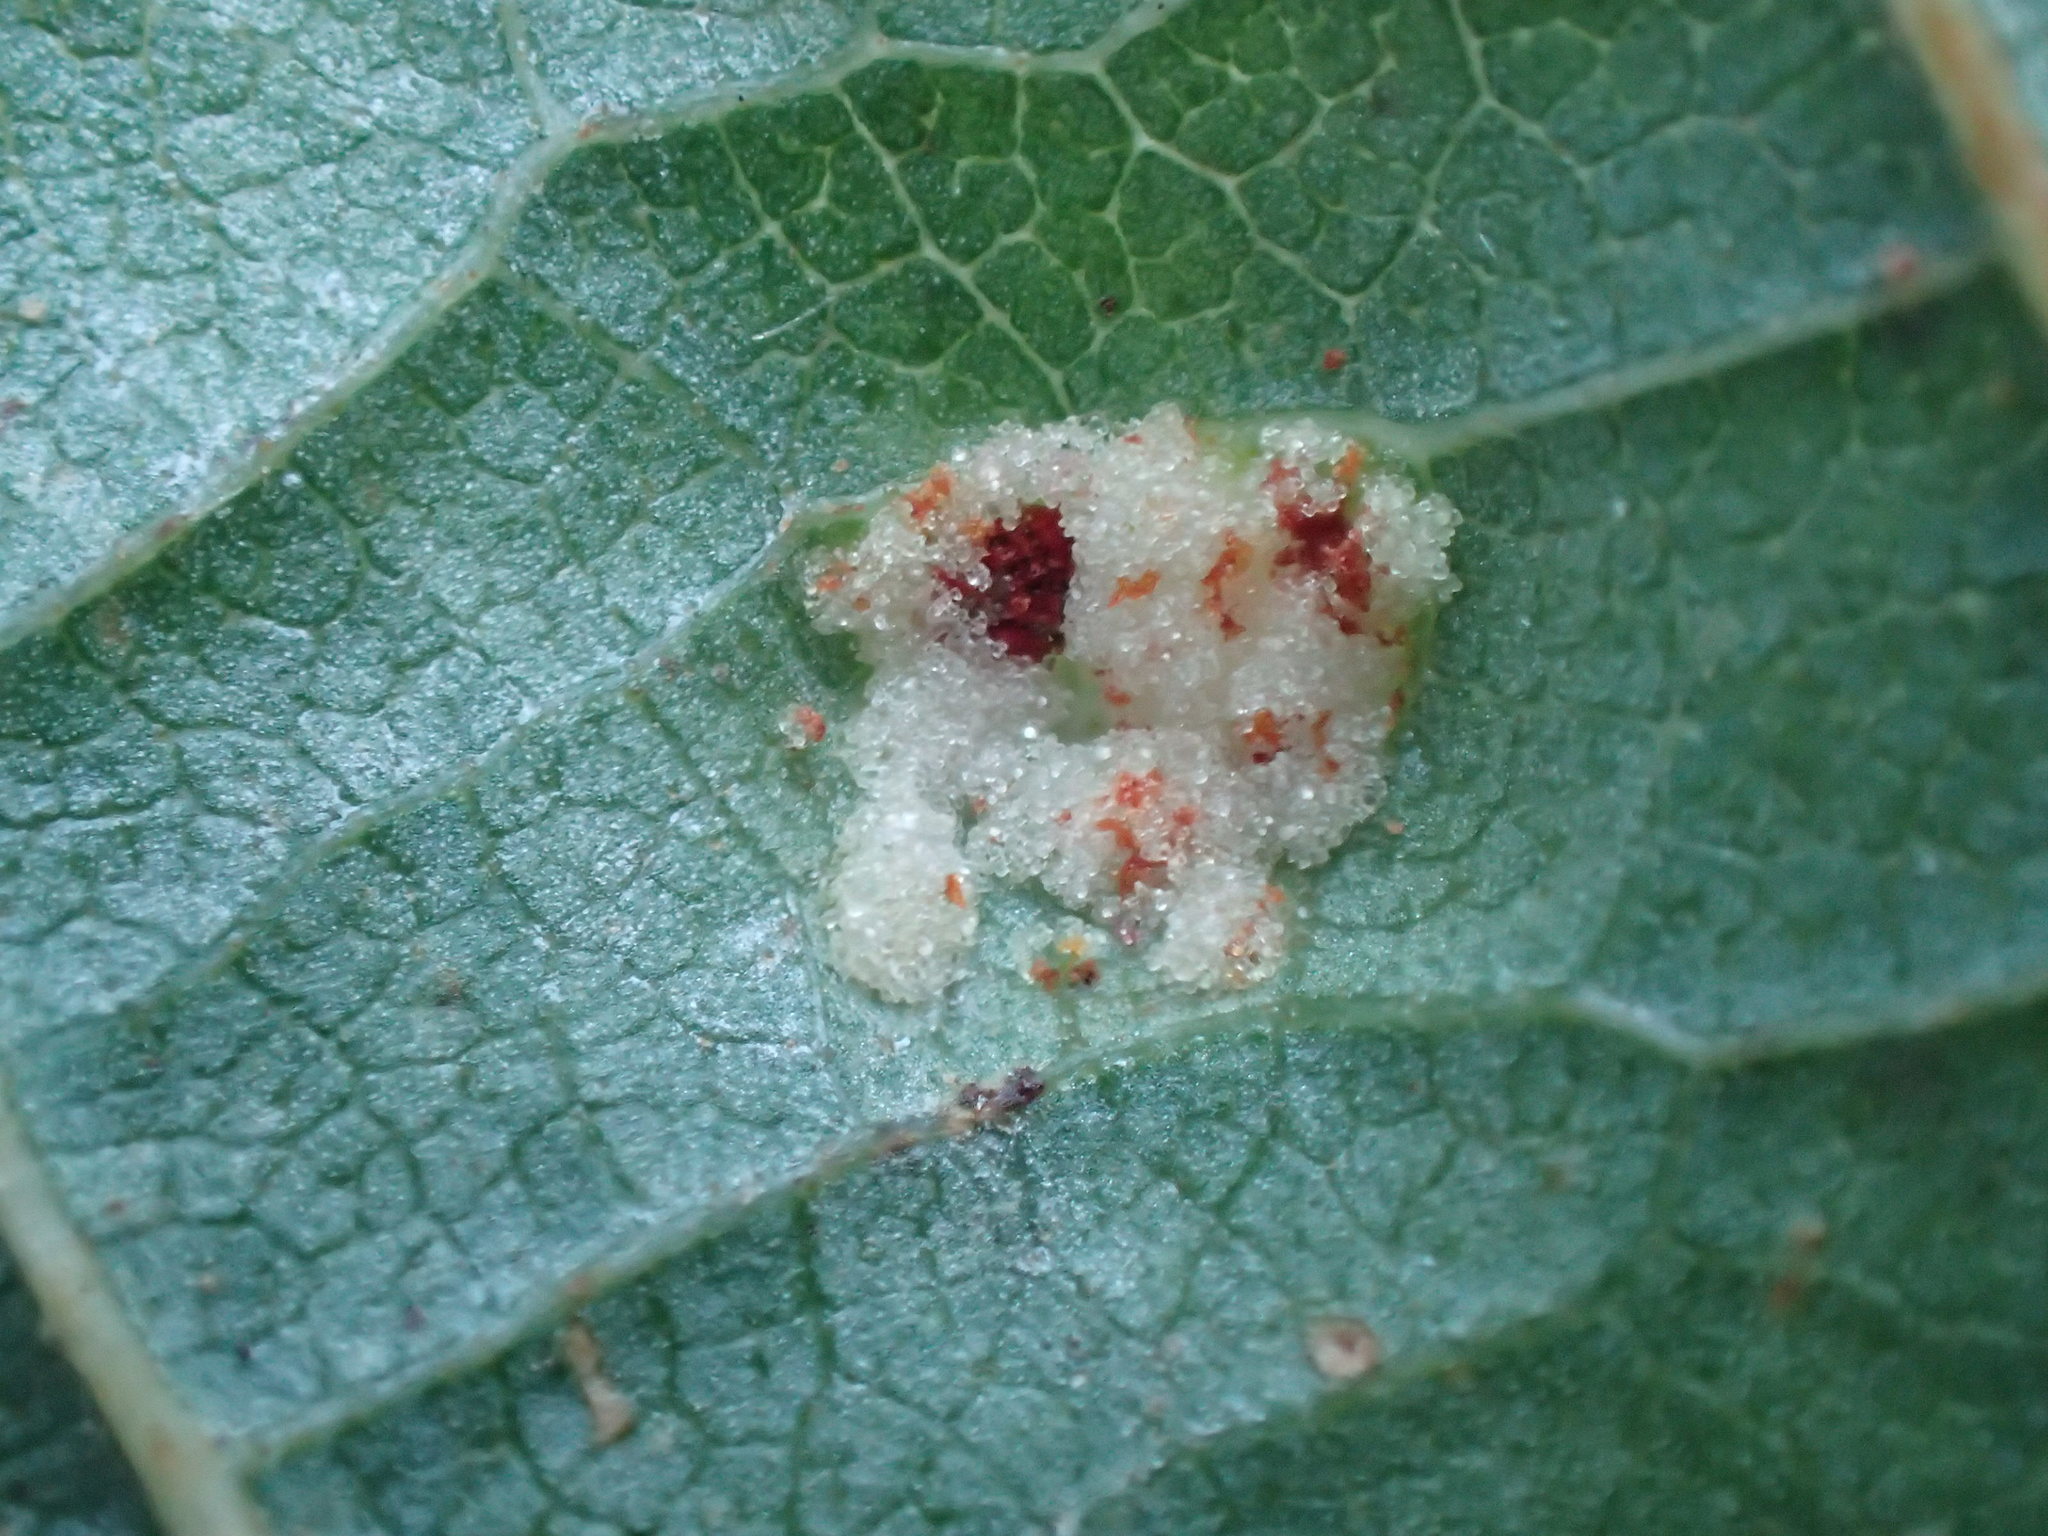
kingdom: Animalia
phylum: Arthropoda
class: Arachnida
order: Trombidiformes
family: Eriophyidae
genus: Acalitus
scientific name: Acalitus brevitarsus
